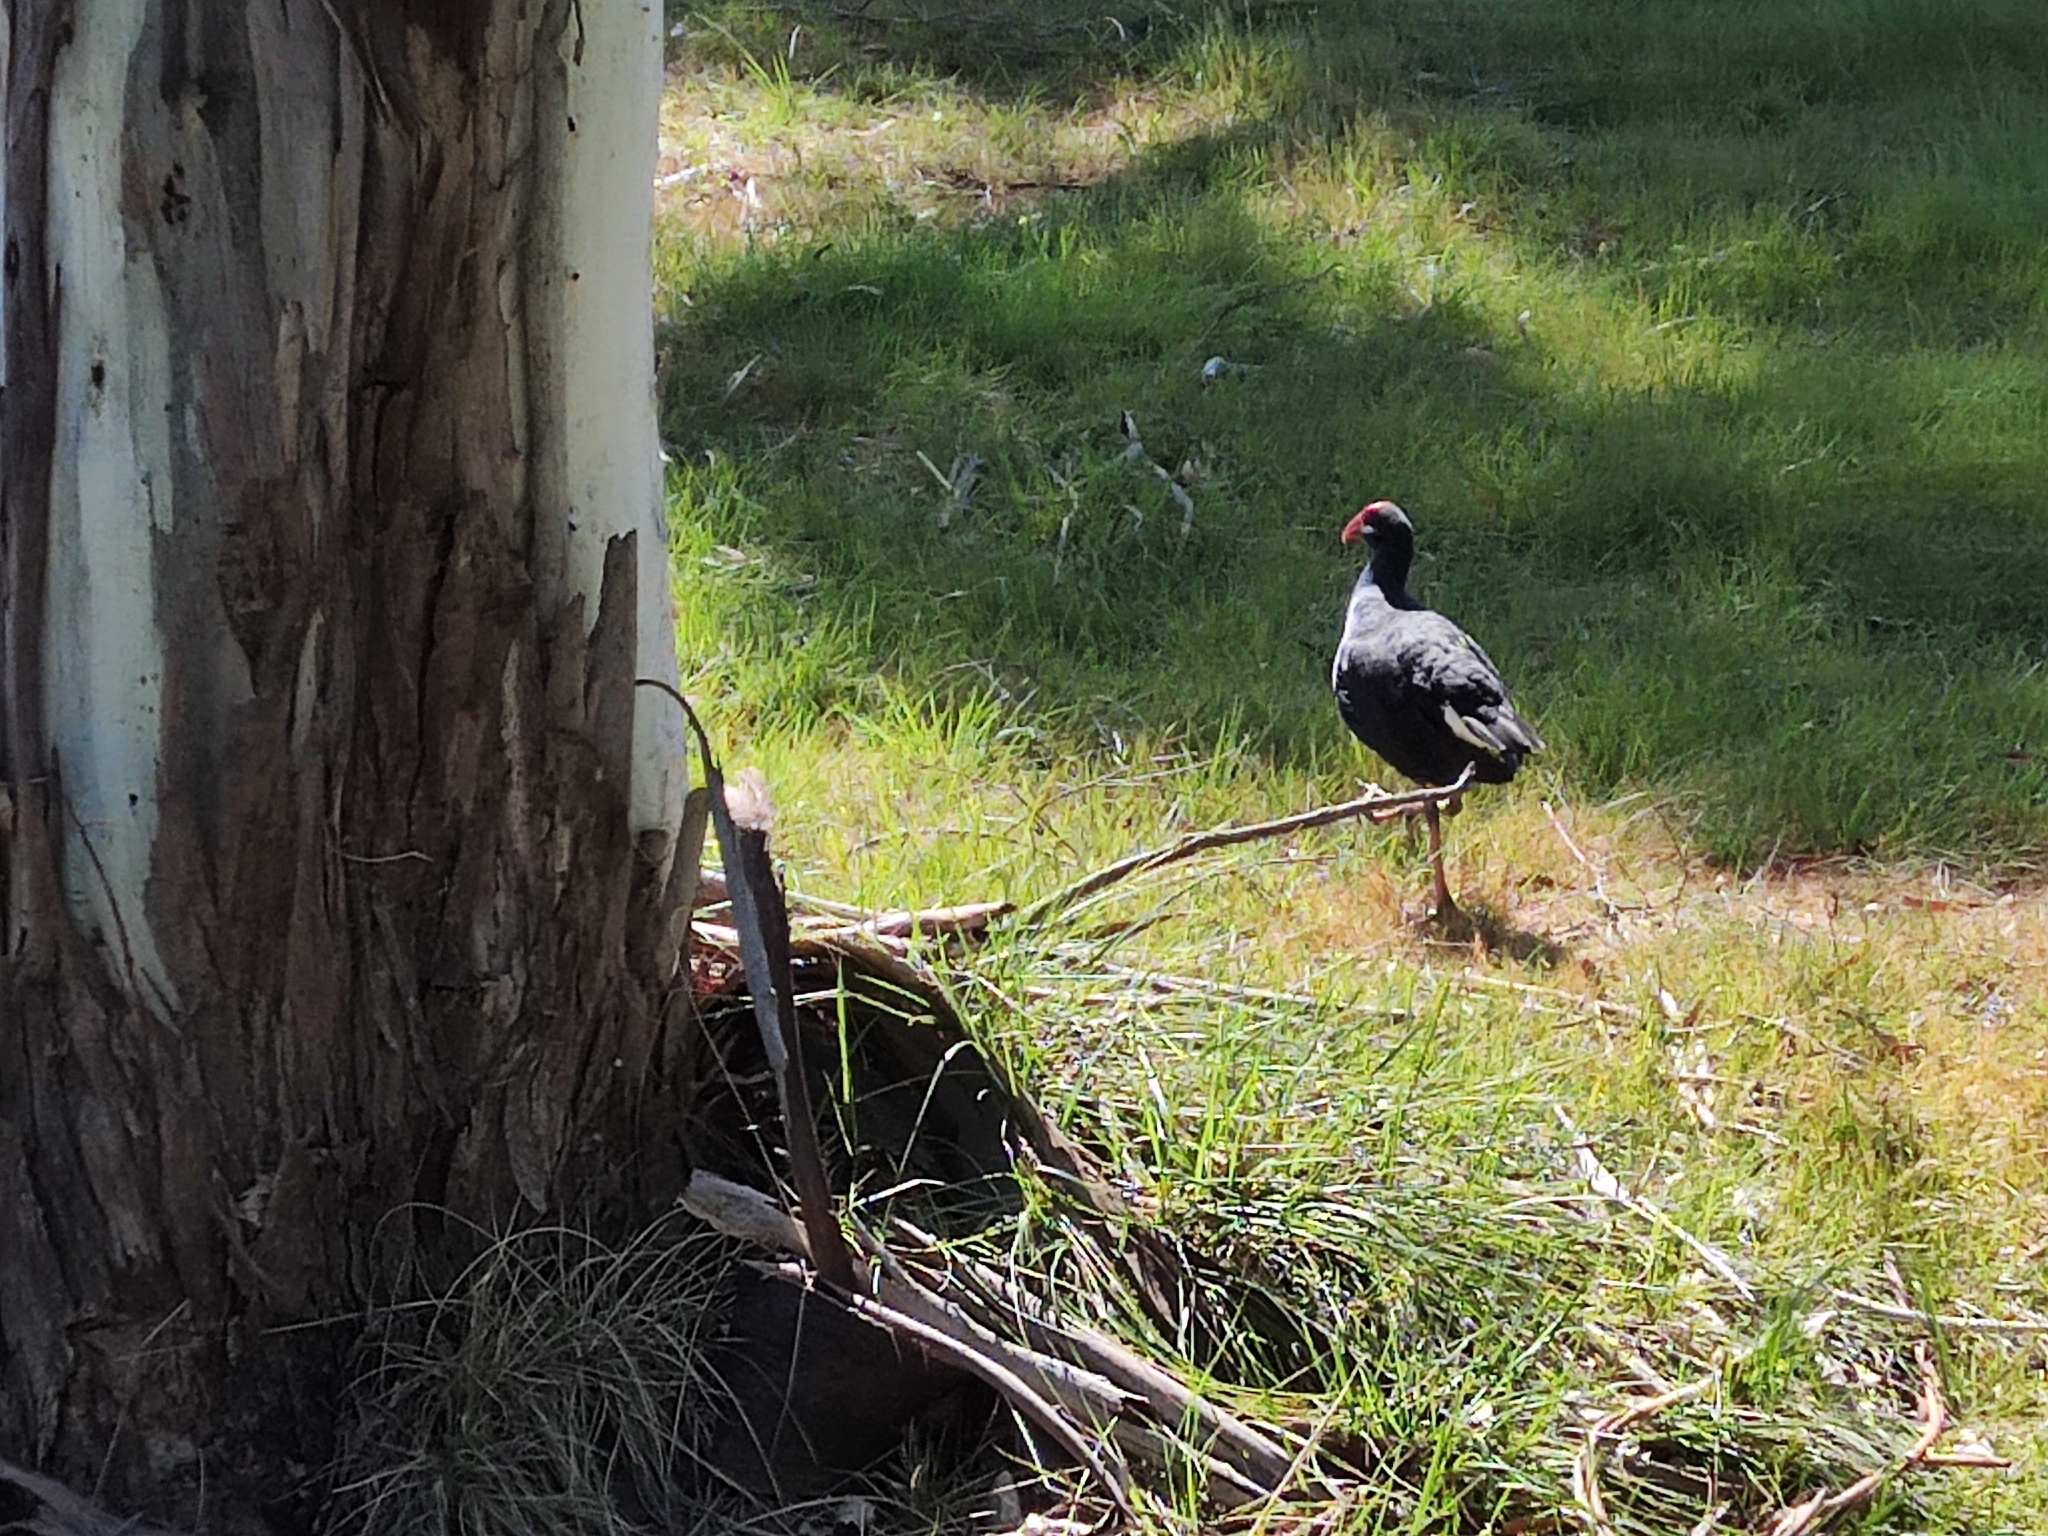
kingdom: Animalia
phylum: Chordata
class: Aves
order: Gruiformes
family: Rallidae
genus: Porphyrio
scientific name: Porphyrio melanotus
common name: Australasian swamphen
